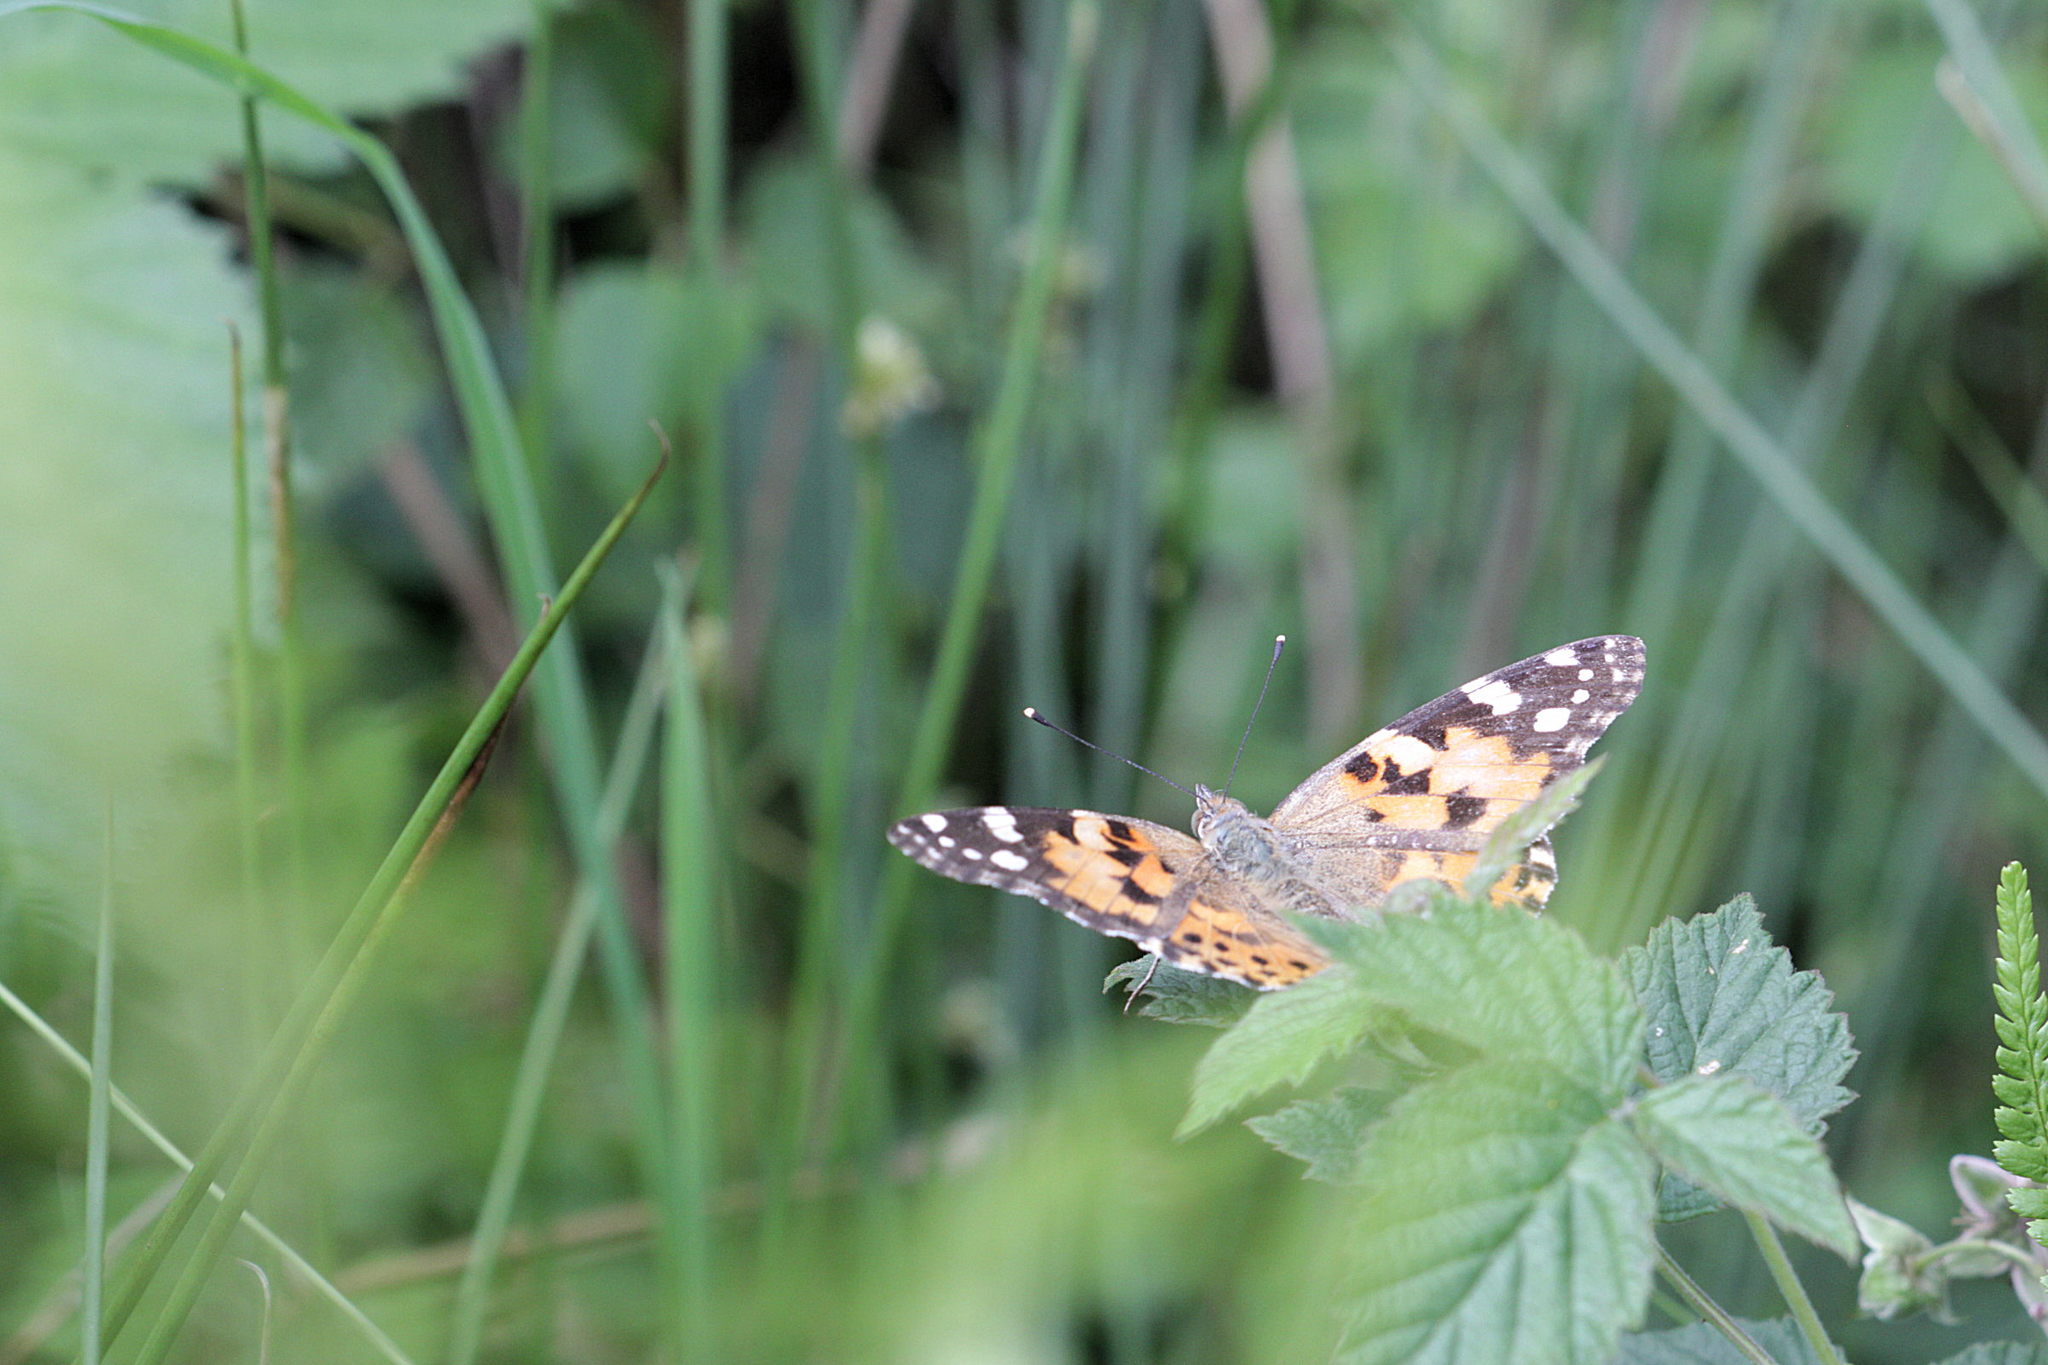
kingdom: Animalia
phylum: Arthropoda
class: Insecta
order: Lepidoptera
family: Nymphalidae
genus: Vanessa
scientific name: Vanessa cardui
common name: Painted lady
